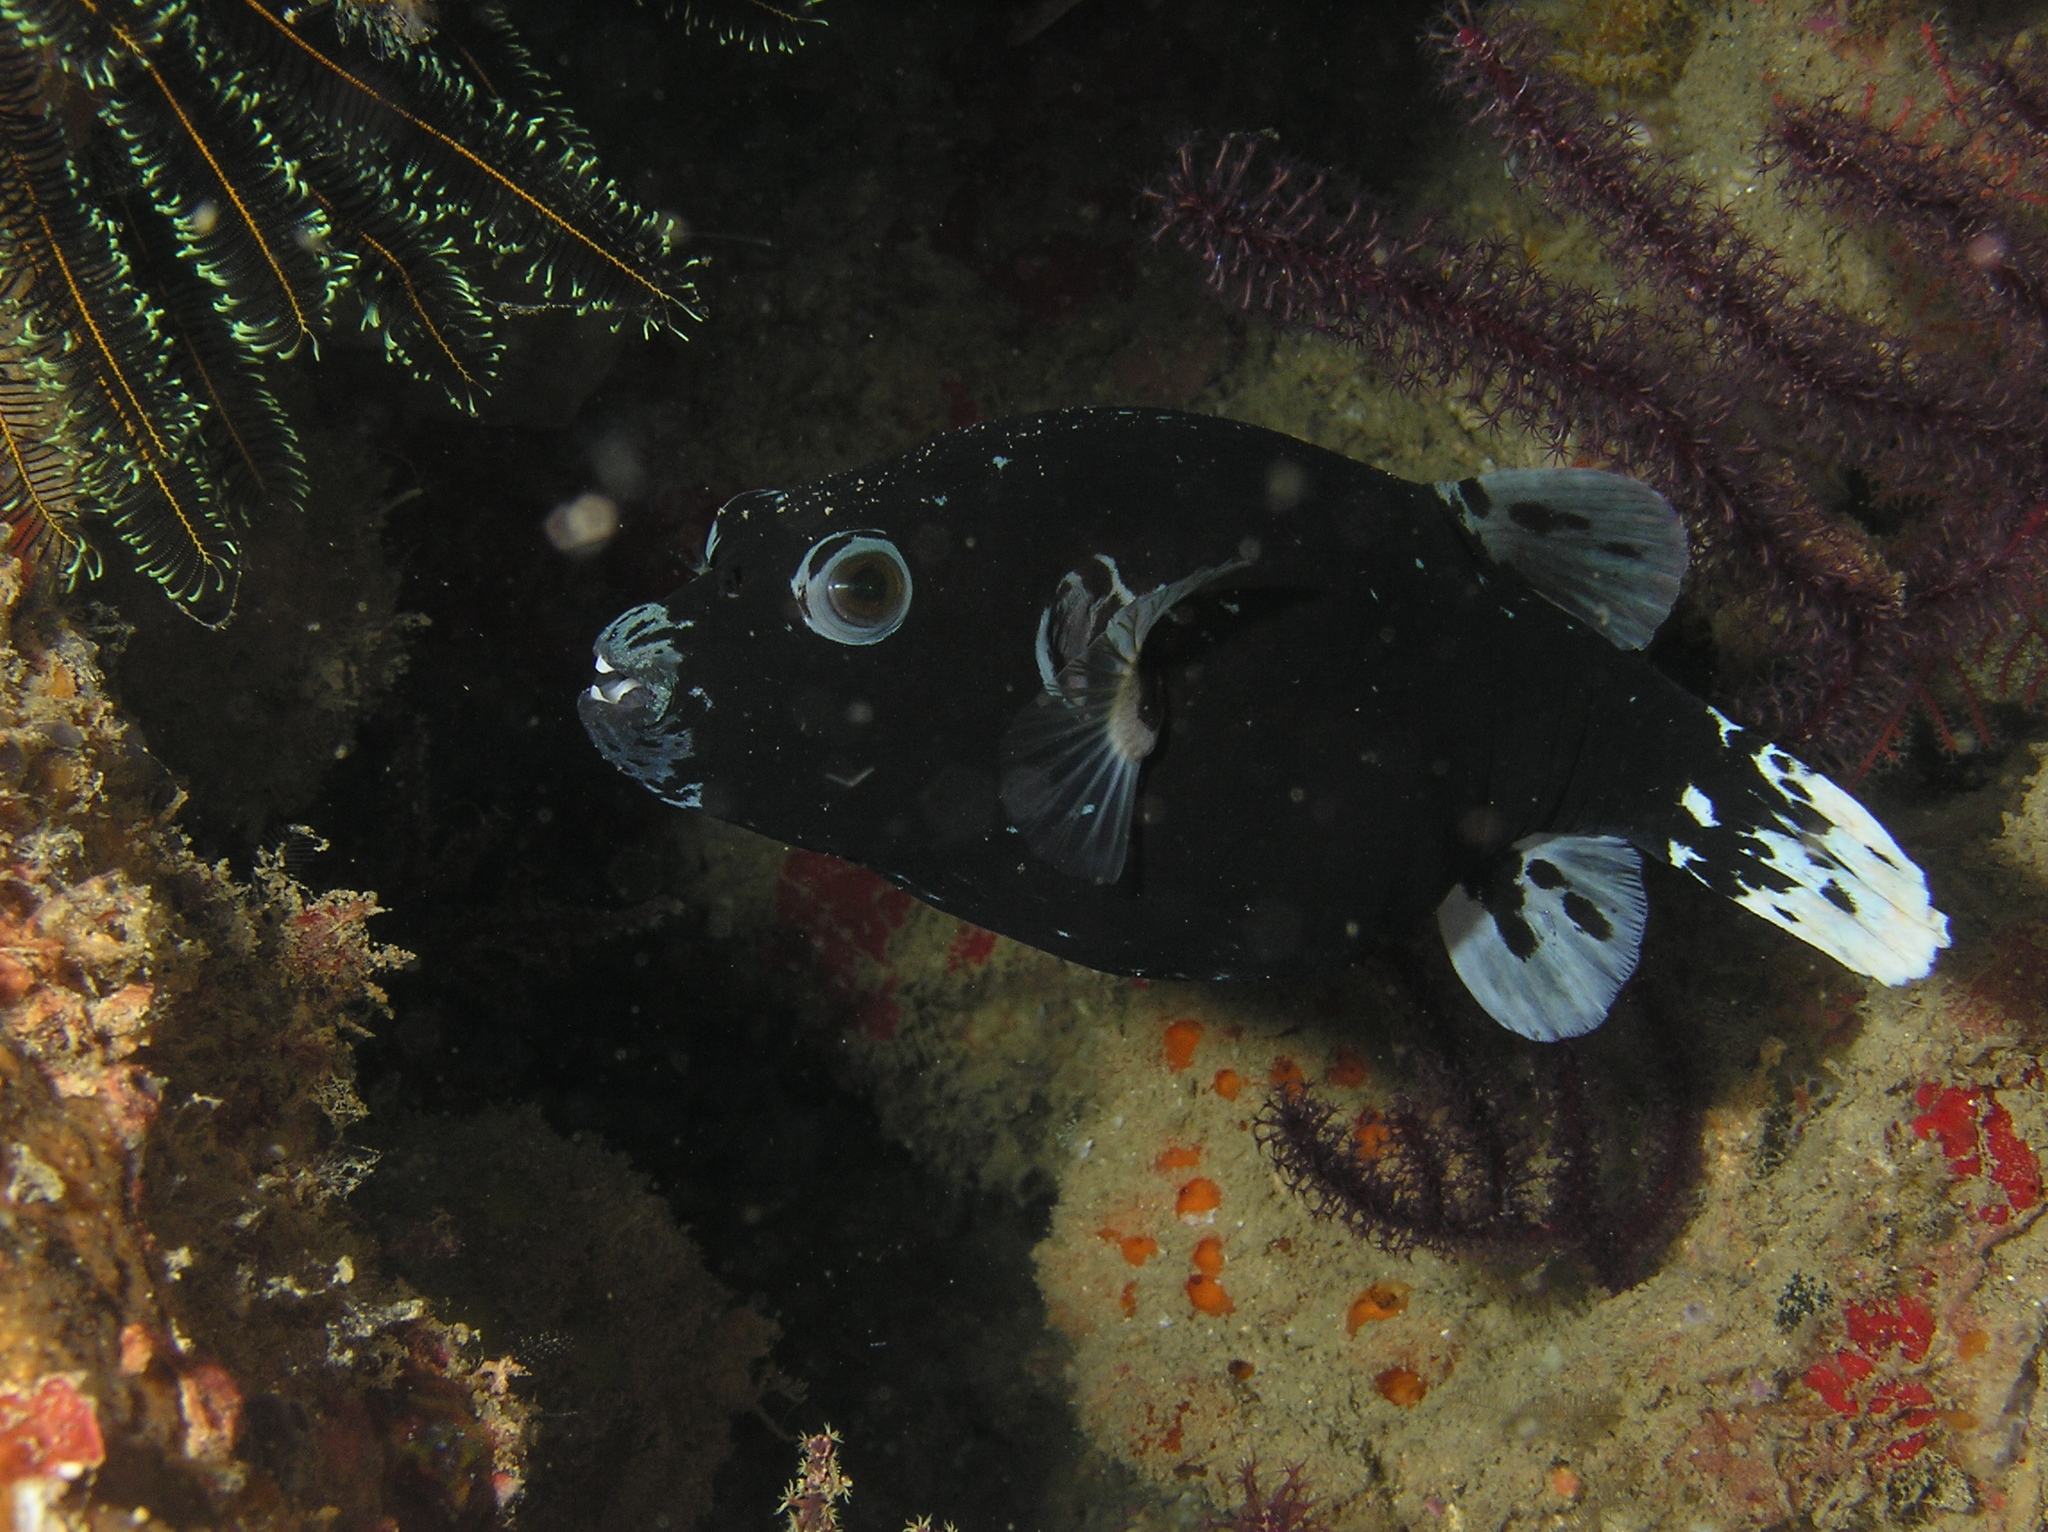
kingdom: Animalia
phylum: Chordata
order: Tetraodontiformes
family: Tetraodontidae
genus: Arothron
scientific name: Arothron nigropunctatus
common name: Black spotted blow fish
